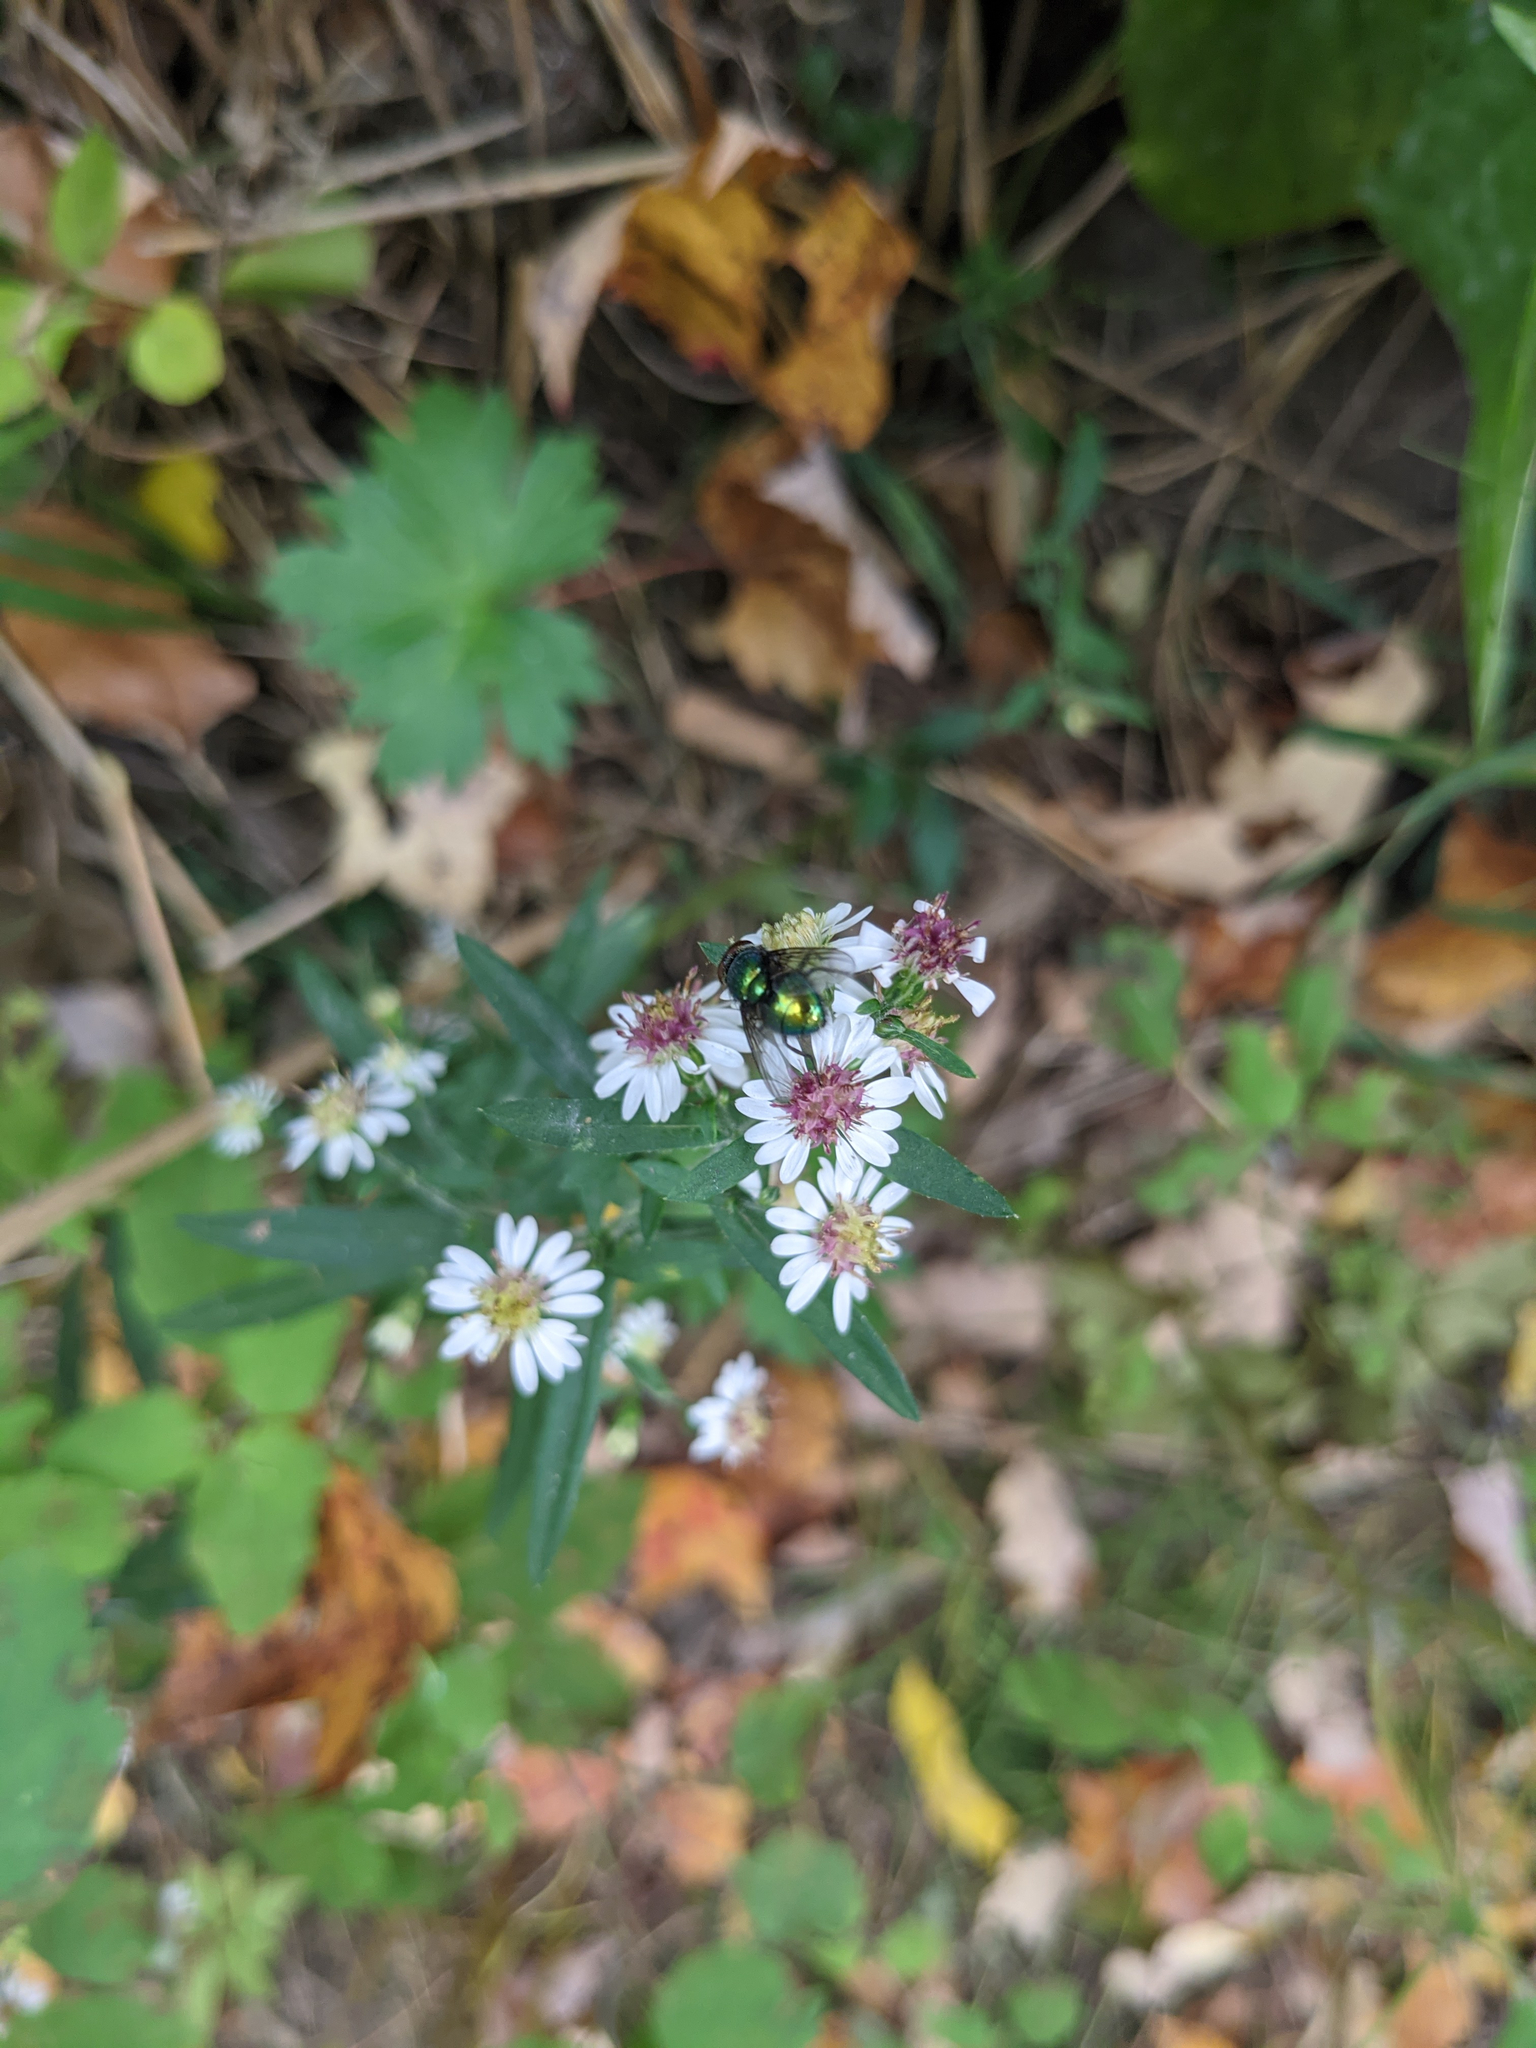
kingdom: Animalia
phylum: Arthropoda
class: Insecta
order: Diptera
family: Calliphoridae
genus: Lucilia
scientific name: Lucilia
